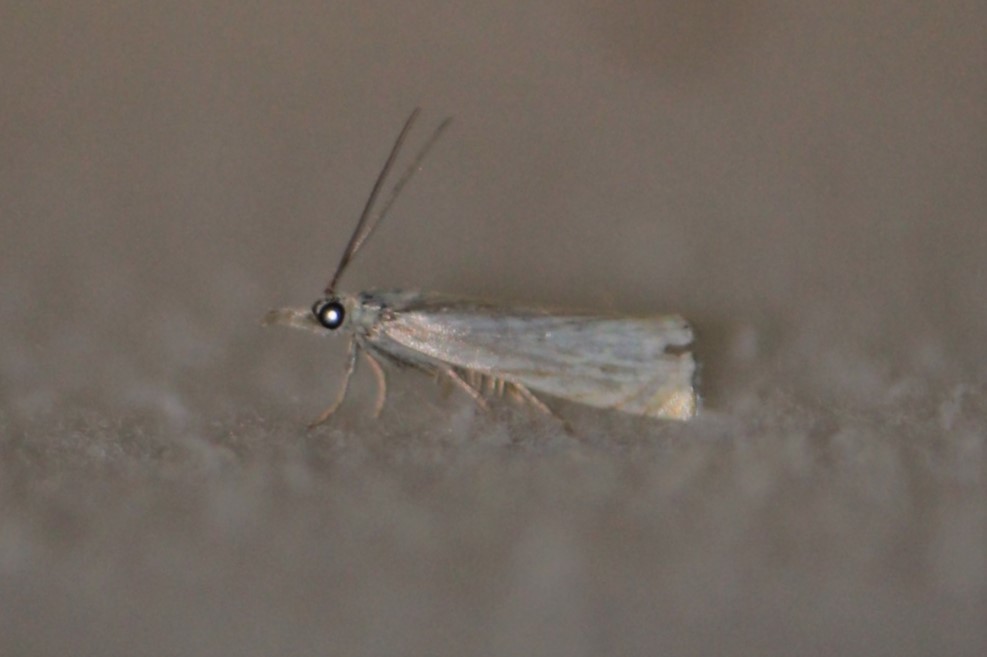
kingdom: Animalia
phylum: Arthropoda
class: Insecta
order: Lepidoptera
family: Crambidae
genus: Crambus
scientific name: Crambus albellus
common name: Small white grass-veneer
